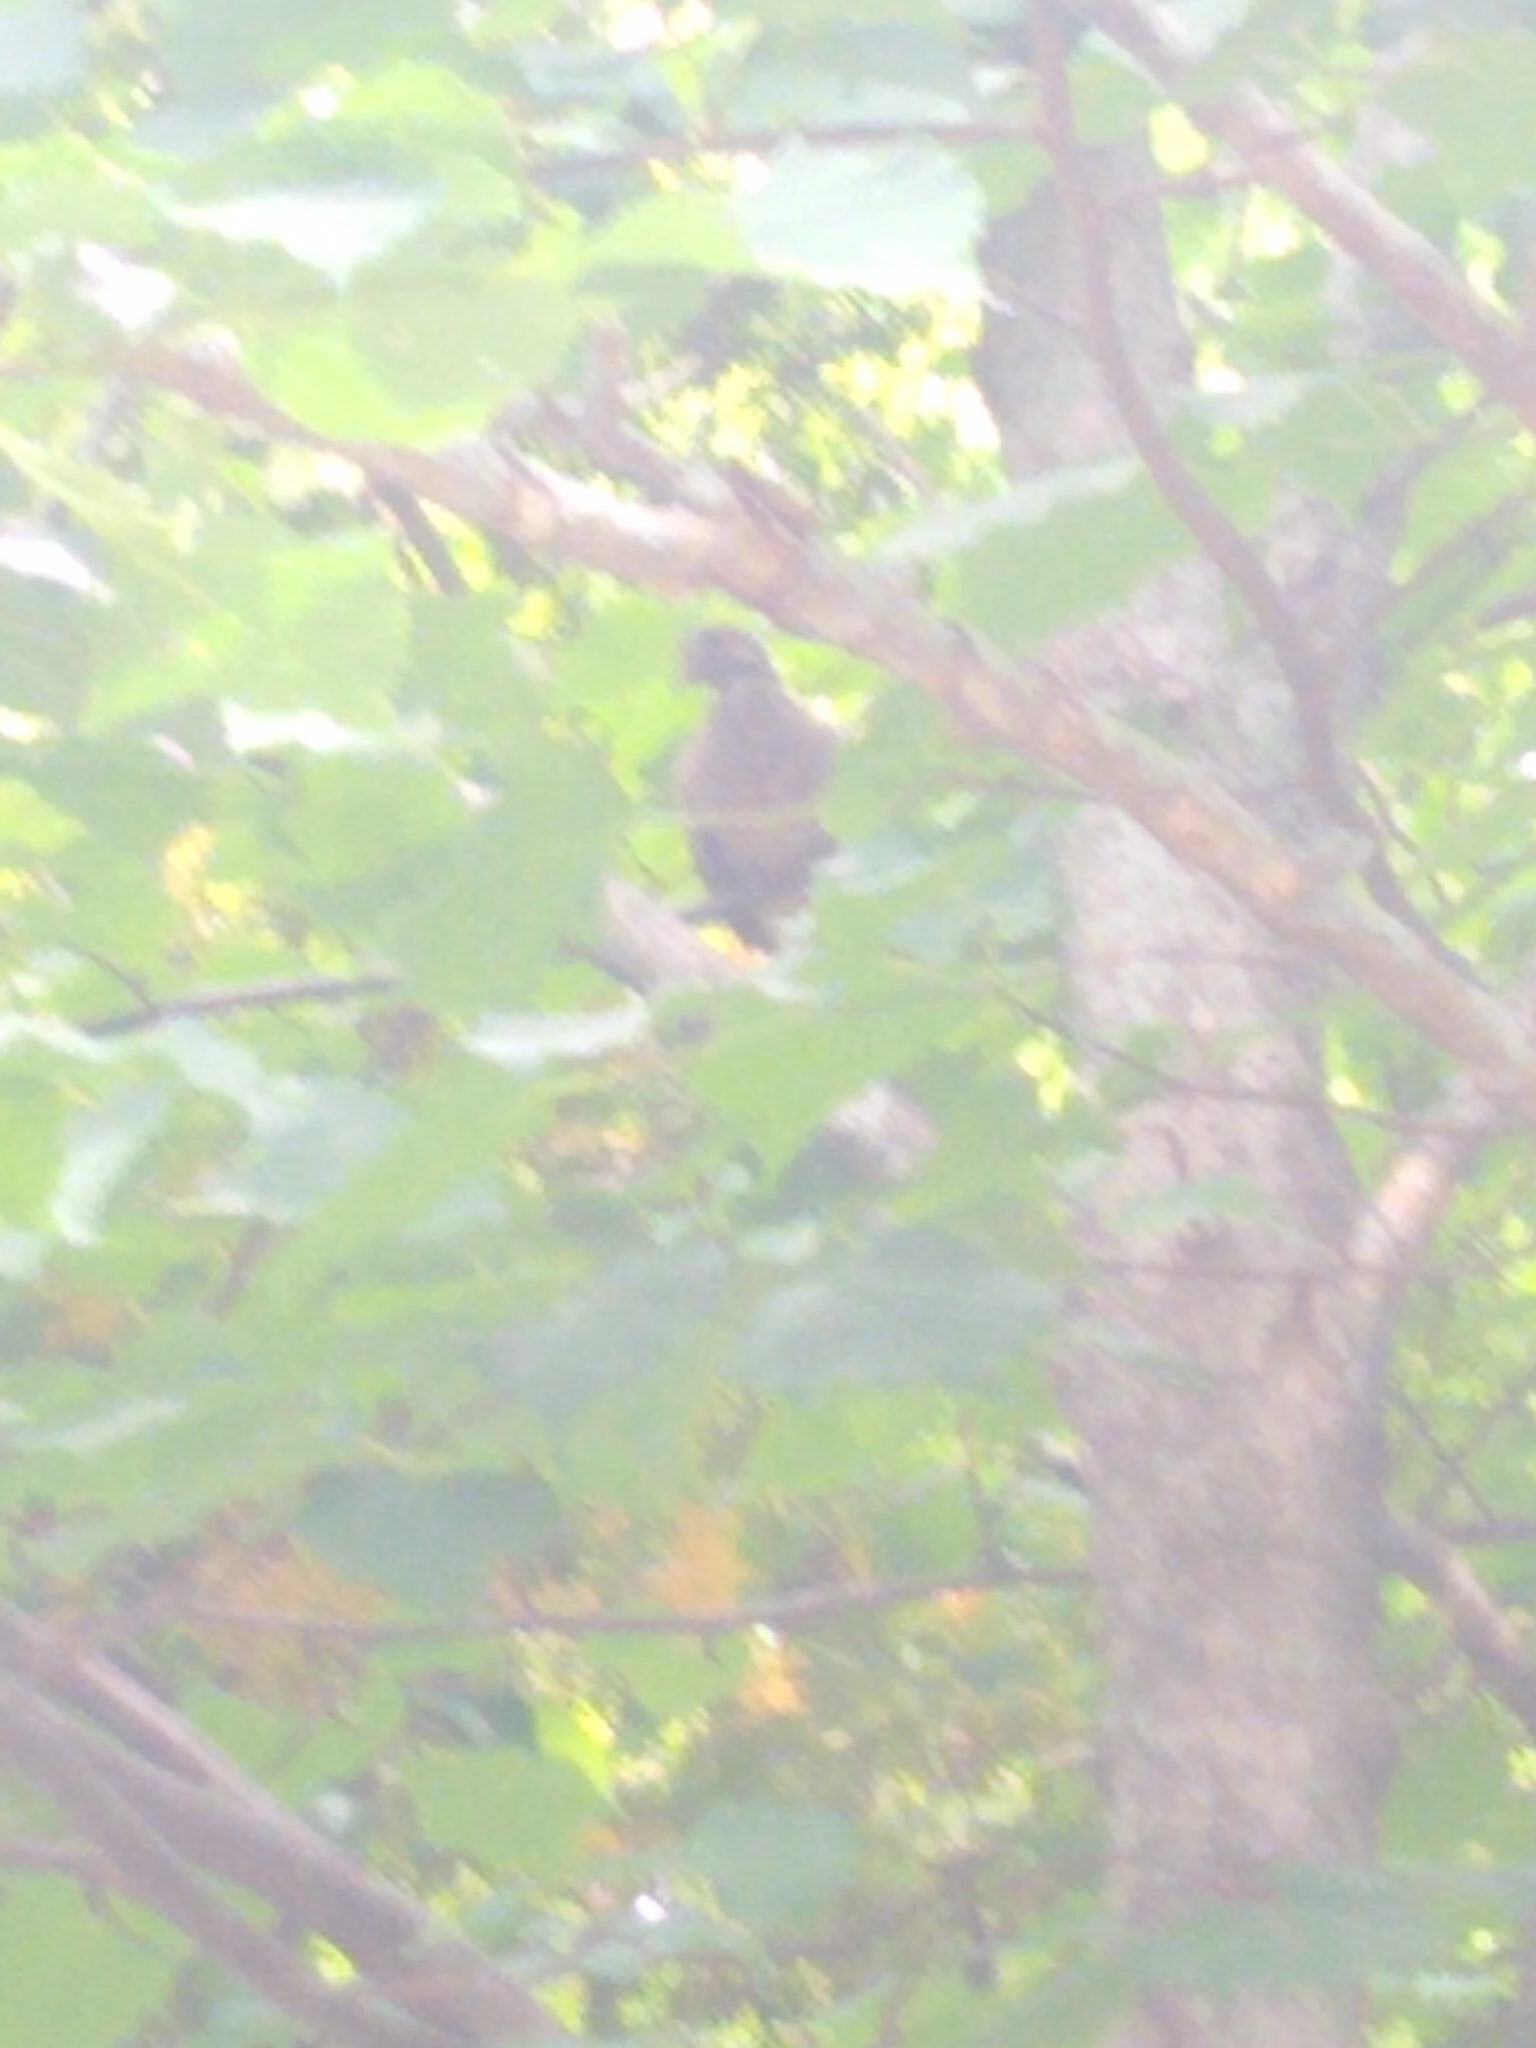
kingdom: Animalia
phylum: Chordata
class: Aves
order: Columbiformes
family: Columbidae
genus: Zenaida
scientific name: Zenaida macroura
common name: Mourning dove
